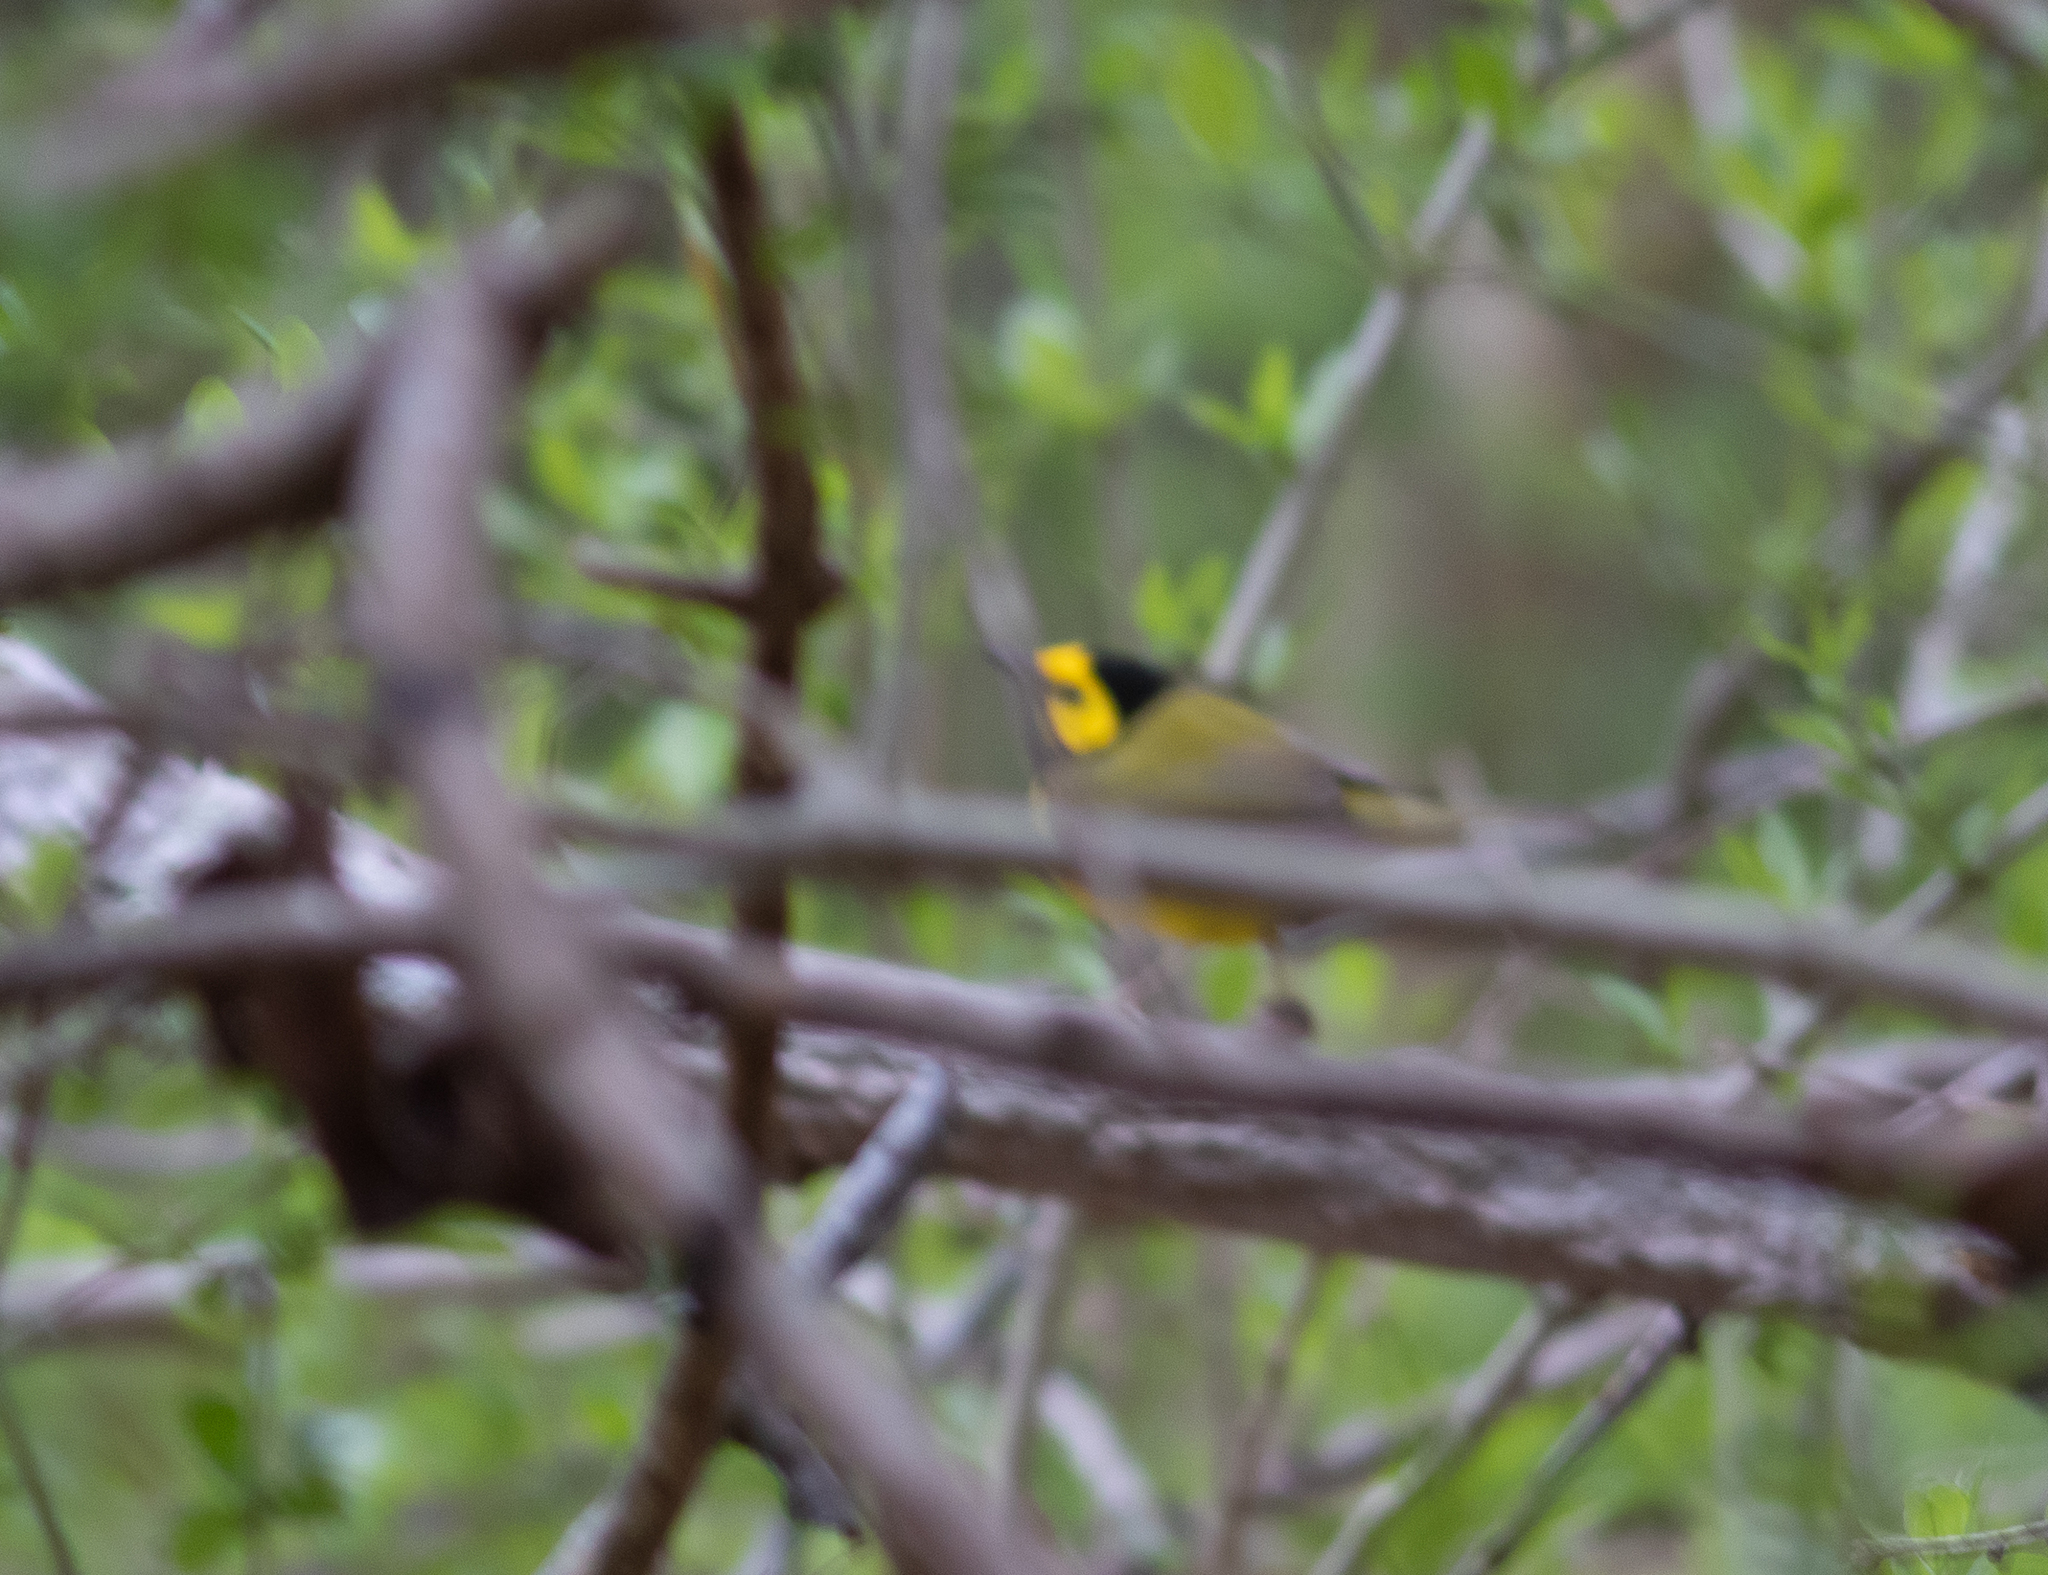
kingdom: Animalia
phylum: Chordata
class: Aves
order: Passeriformes
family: Parulidae
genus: Setophaga
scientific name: Setophaga citrina
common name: Hooded warbler
